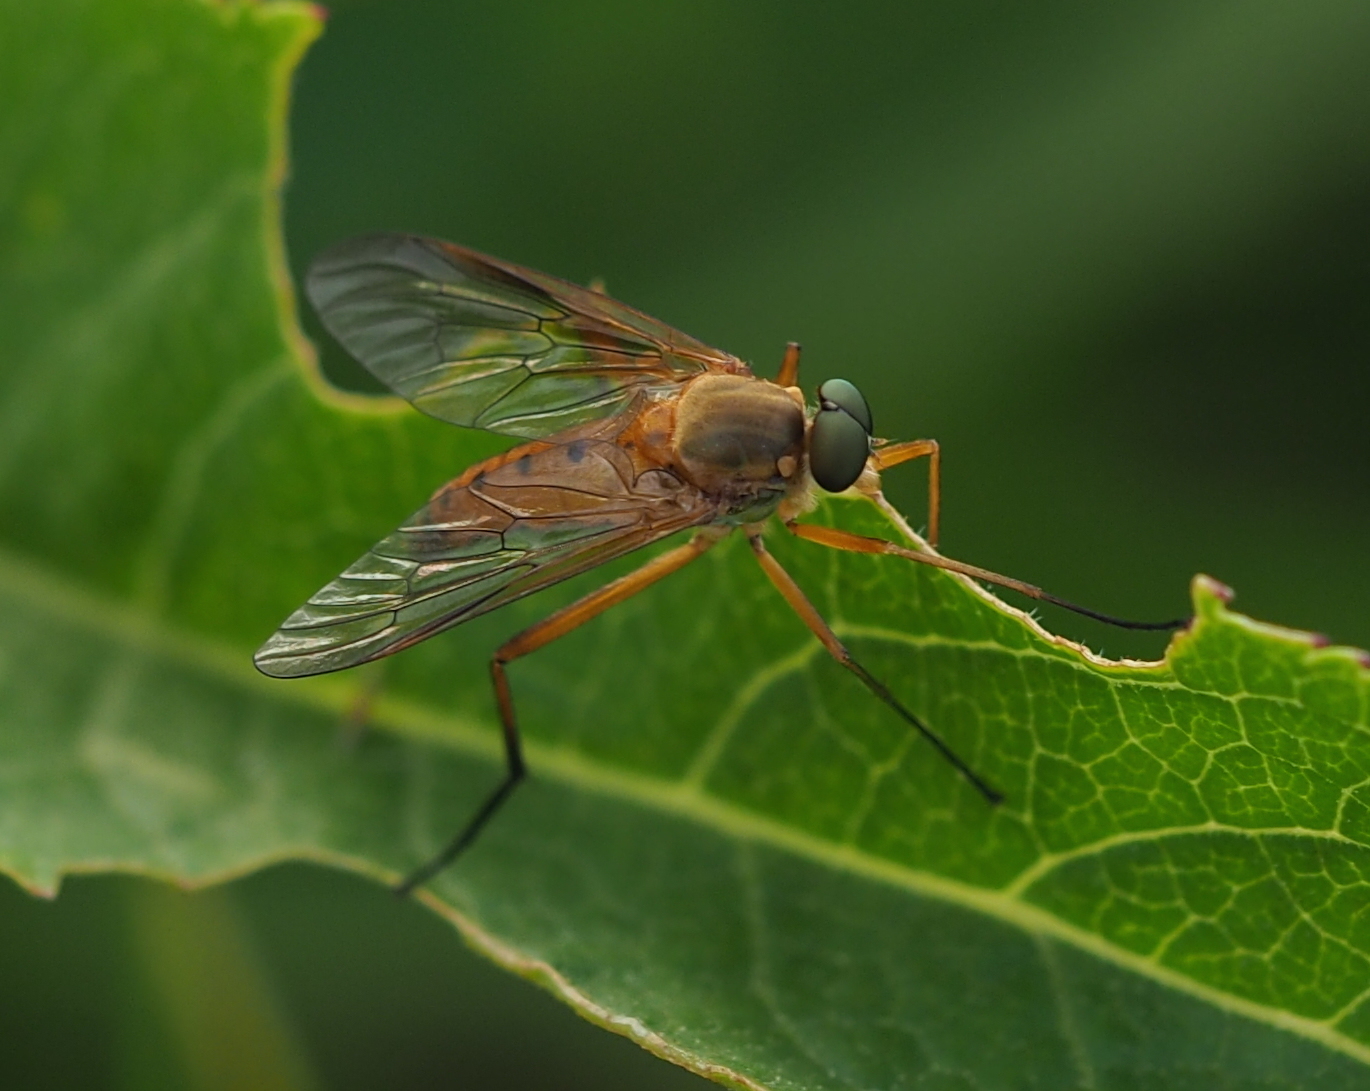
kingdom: Animalia
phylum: Arthropoda
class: Insecta
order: Diptera
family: Rhagionidae
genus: Rhagio
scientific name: Rhagio tringaria
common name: Marsh snipefly
